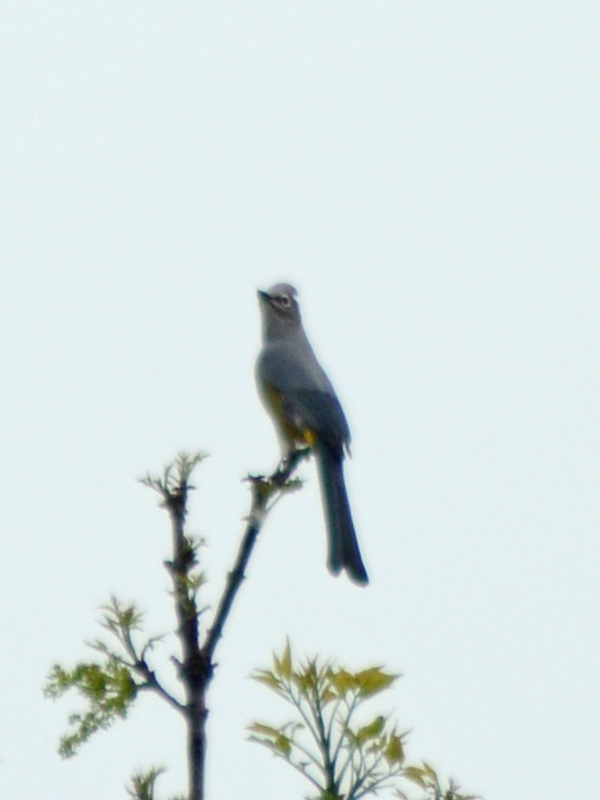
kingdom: Animalia
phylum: Chordata
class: Aves
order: Passeriformes
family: Ptilogonatidae
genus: Ptilogonys
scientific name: Ptilogonys cinereus
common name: Gray silky-flycatcher
